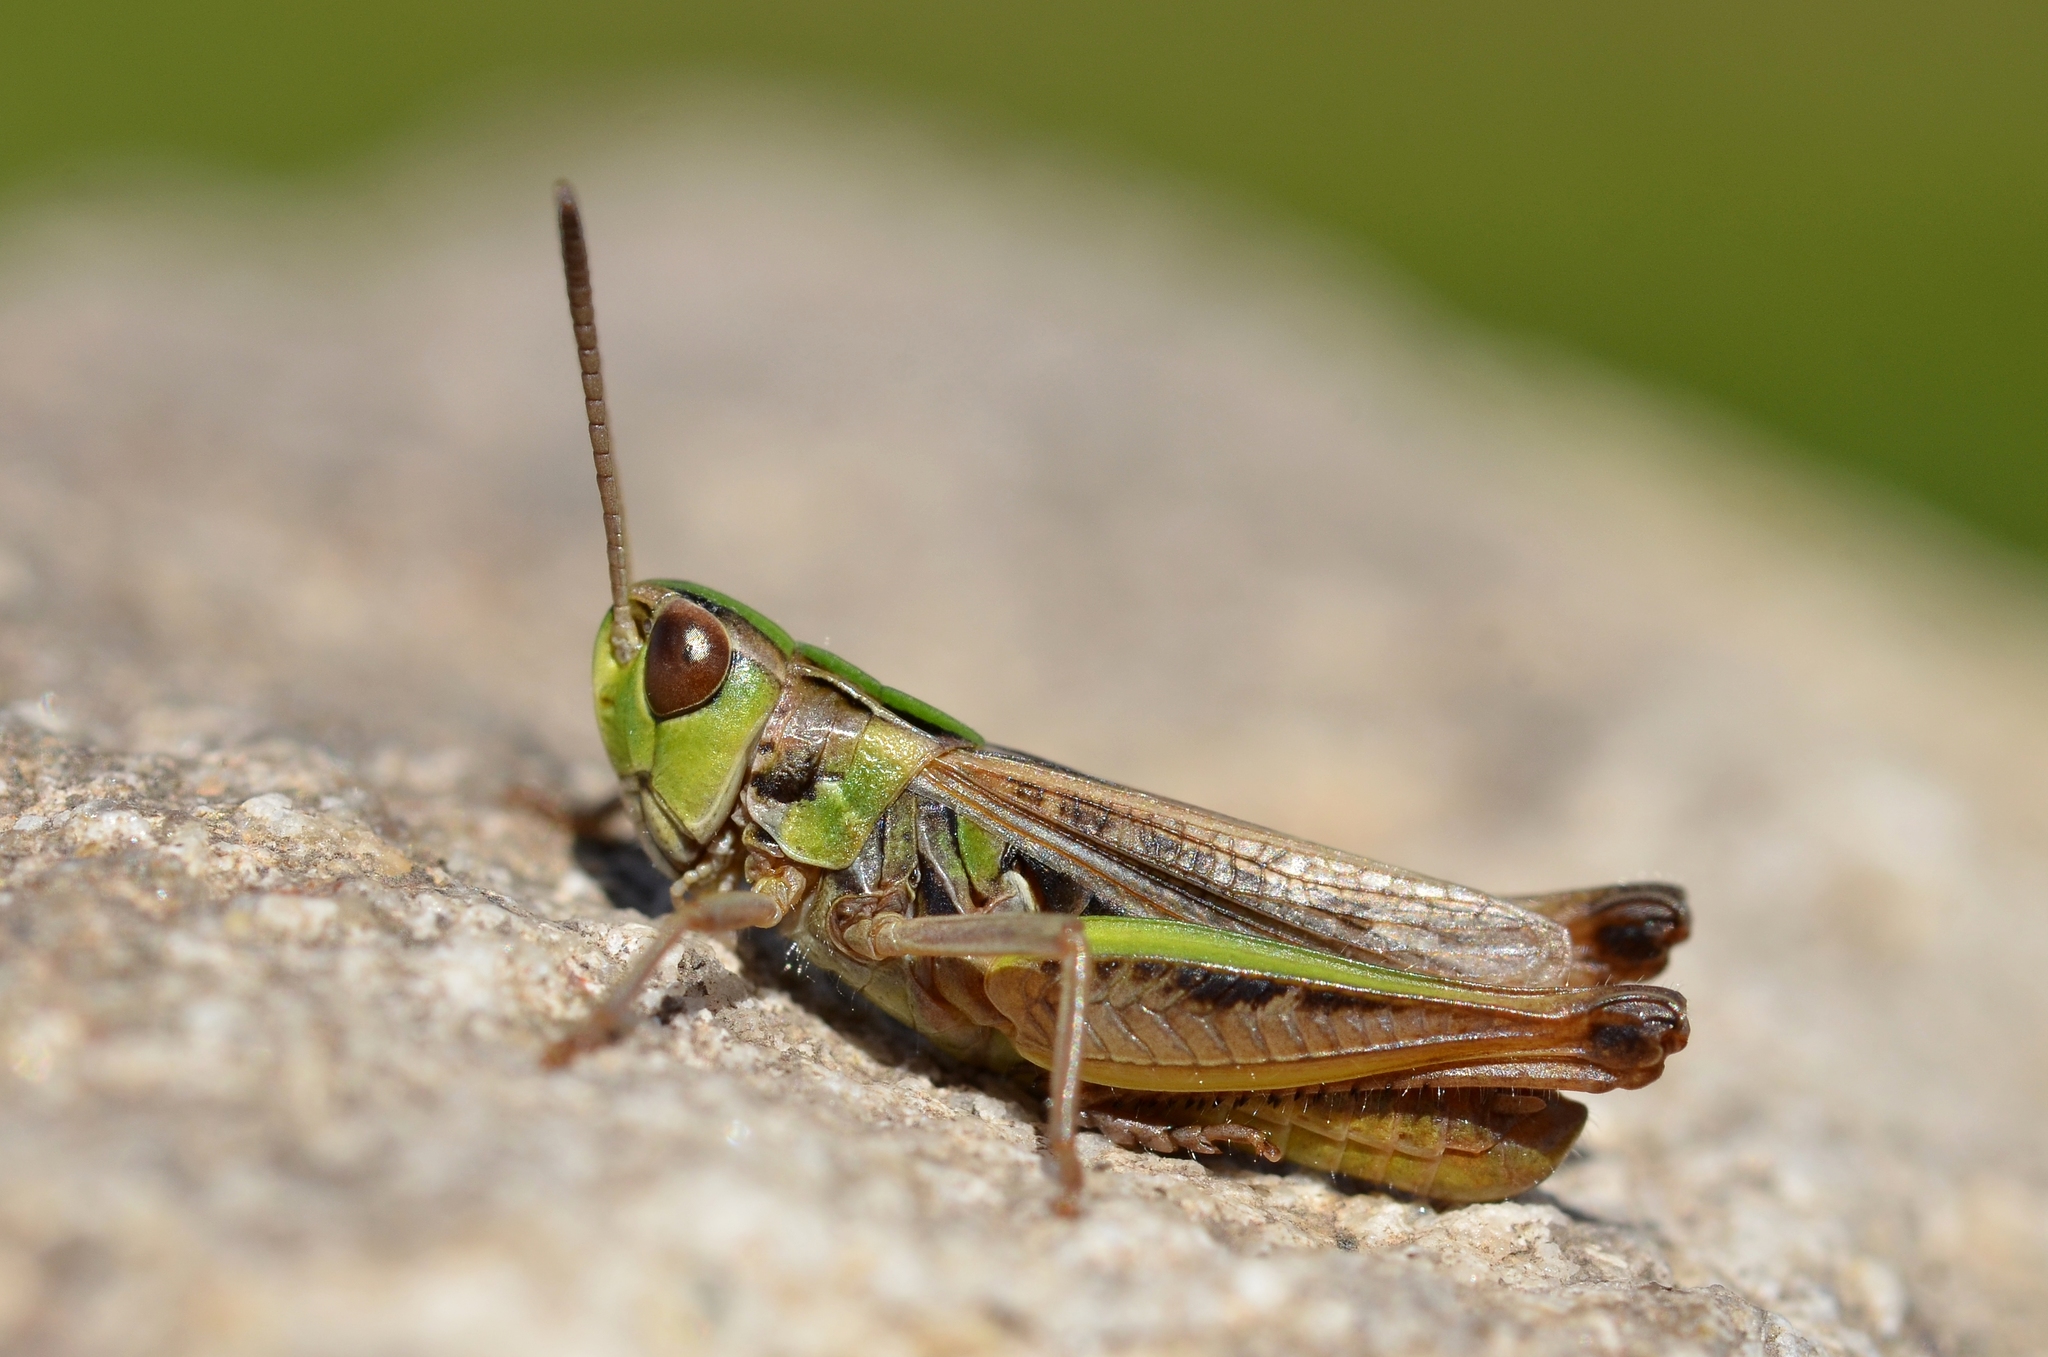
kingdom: Animalia
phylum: Arthropoda
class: Insecta
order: Orthoptera
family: Acrididae
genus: Stenobothrus
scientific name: Stenobothrus stigmaticus
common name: Lesser mottled grasshopper
